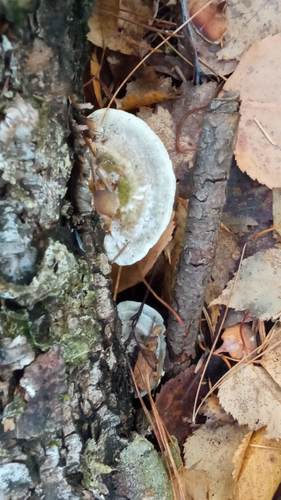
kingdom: Fungi
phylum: Basidiomycota
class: Agaricomycetes
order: Polyporales
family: Polyporaceae
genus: Trametes
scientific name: Trametes gibbosa
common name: Lumpy bracket
